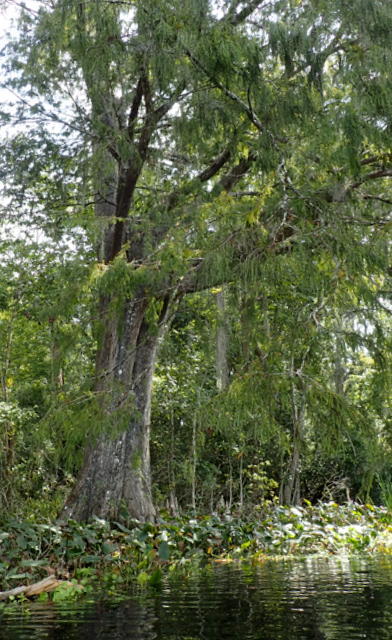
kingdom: Plantae
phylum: Tracheophyta
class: Pinopsida
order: Pinales
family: Cupressaceae
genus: Taxodium
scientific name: Taxodium distichum
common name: Bald cypress
